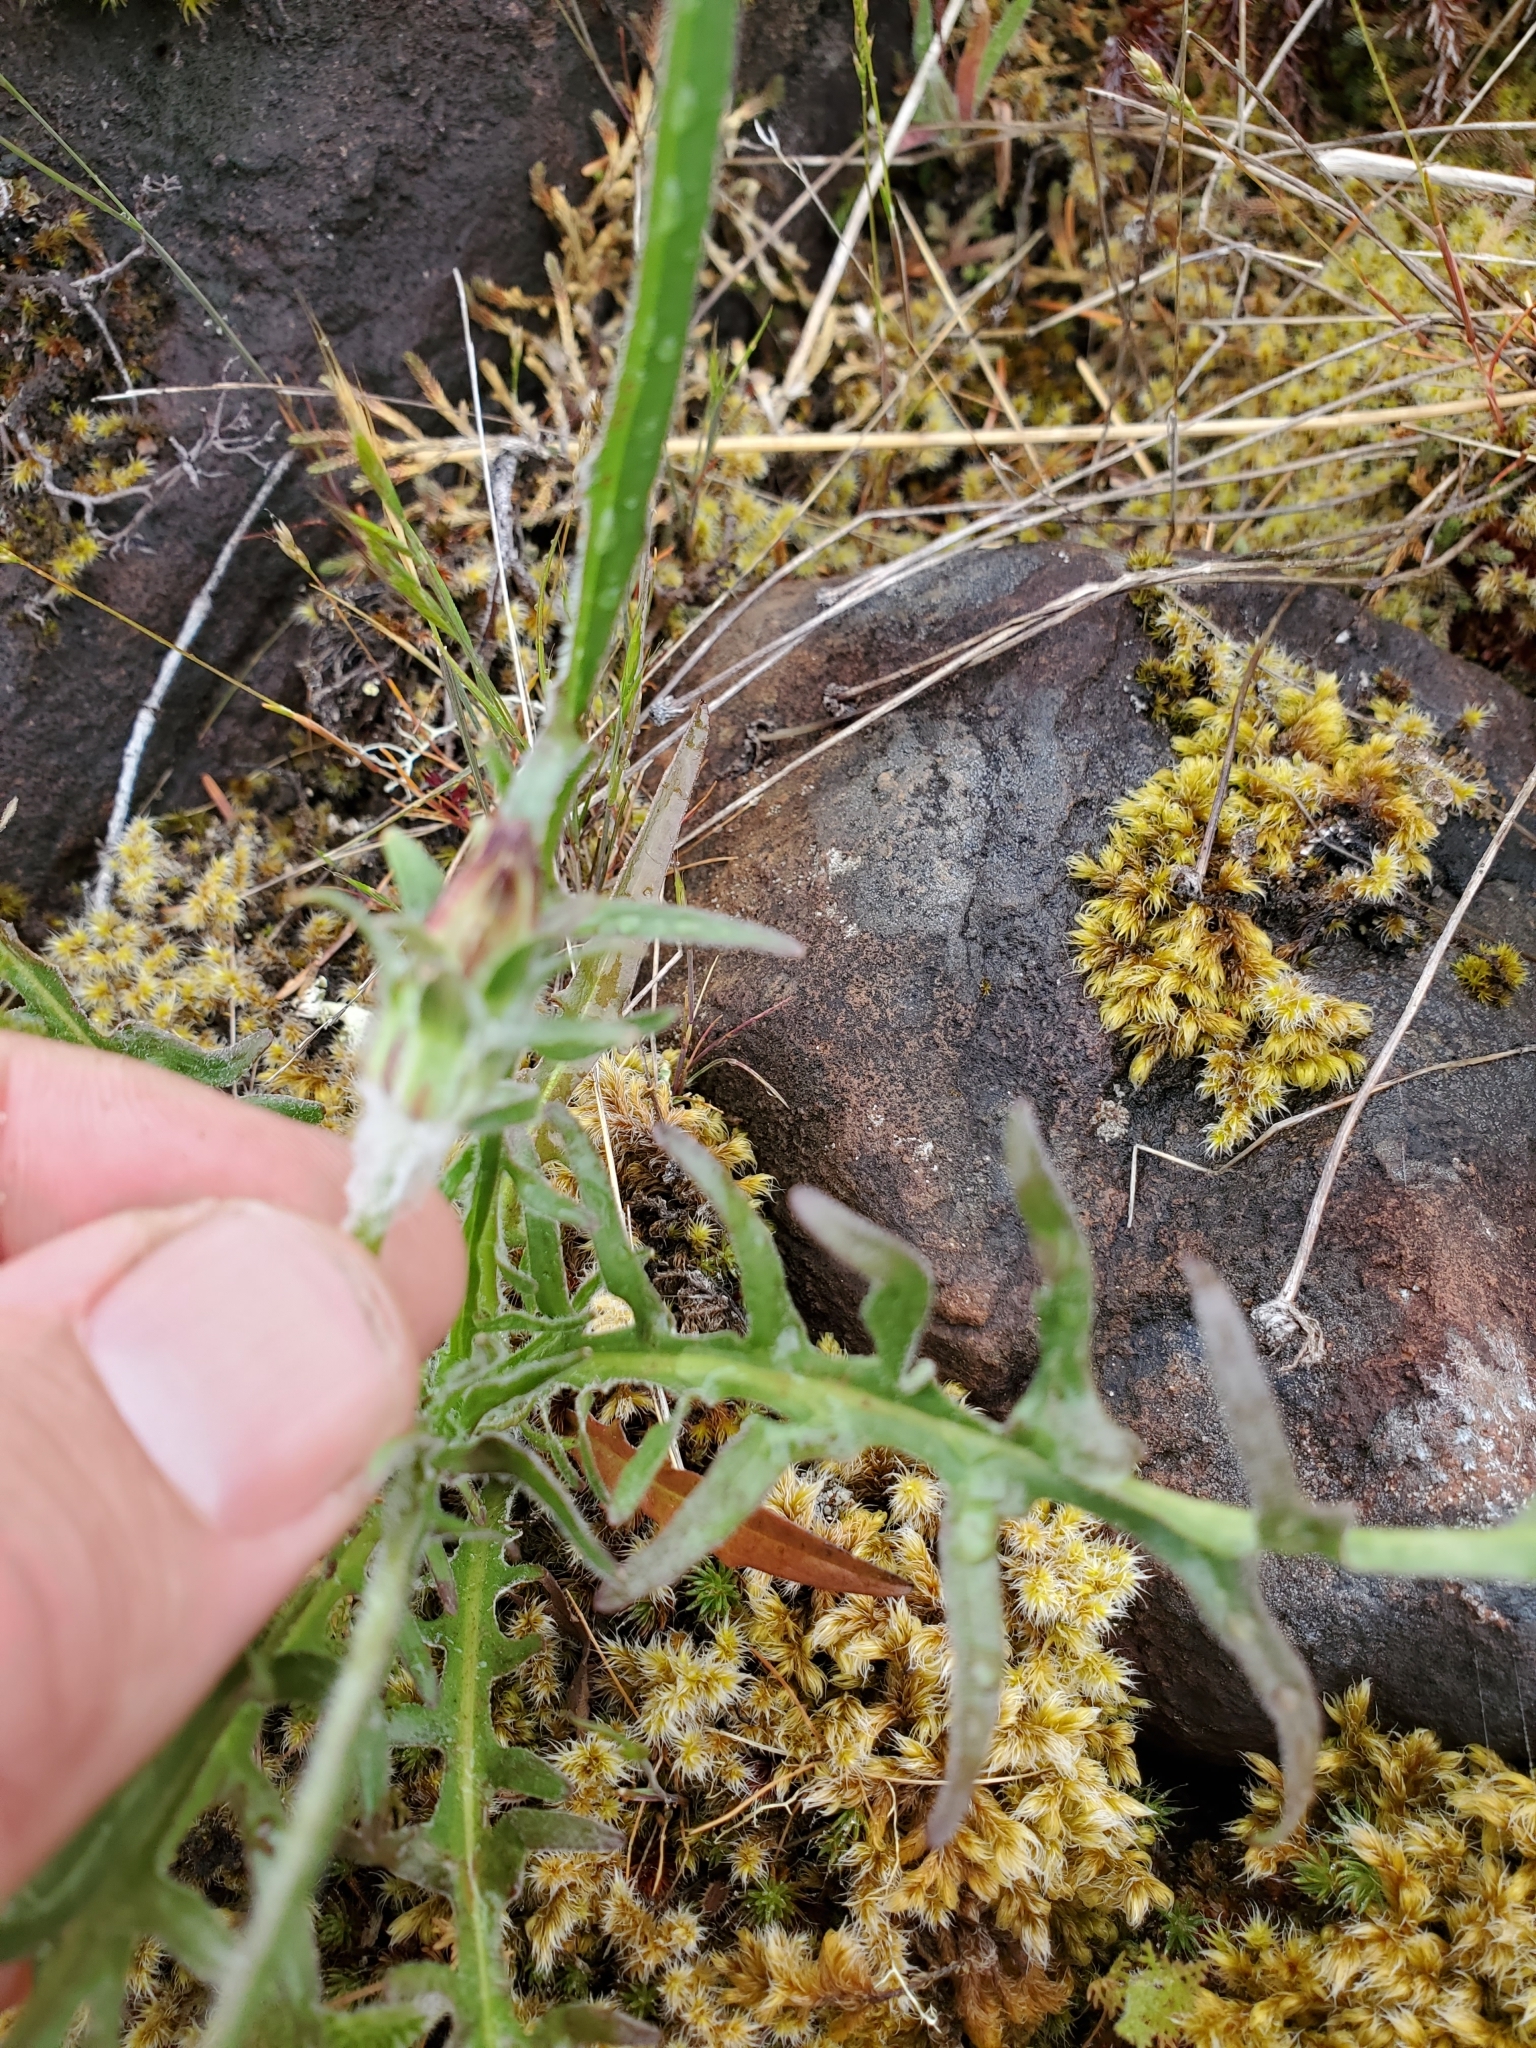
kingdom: Plantae
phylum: Tracheophyta
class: Magnoliopsida
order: Asterales
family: Asteraceae
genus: Agoseris
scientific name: Agoseris grandiflora
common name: Grassland agoseris
